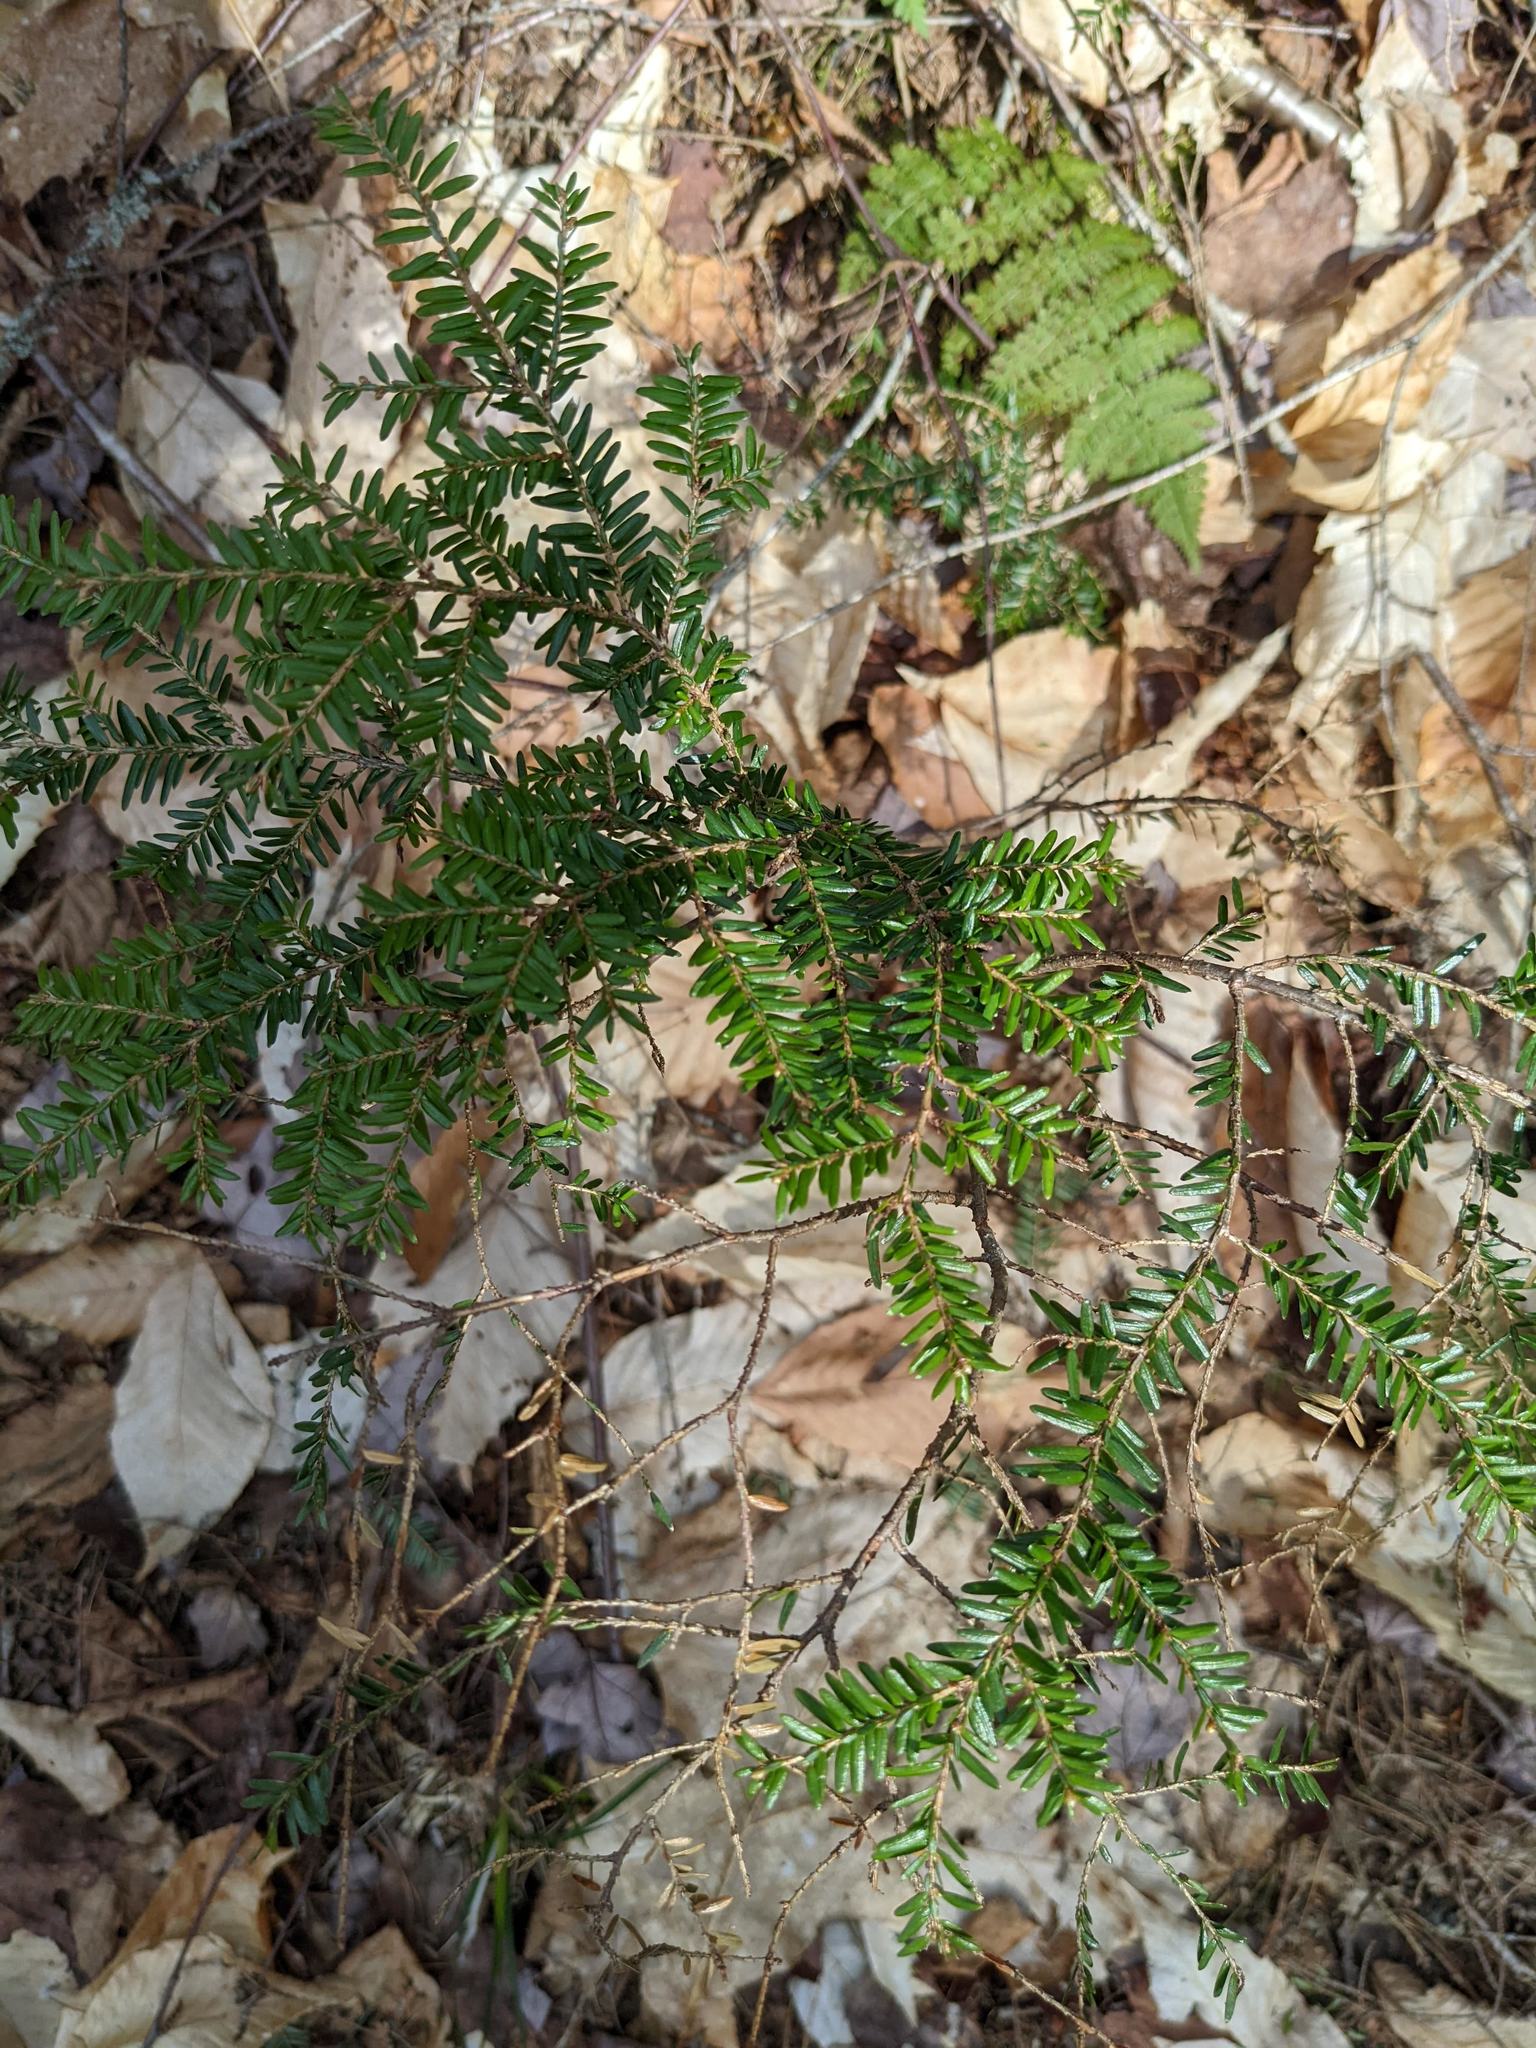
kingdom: Plantae
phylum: Tracheophyta
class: Pinopsida
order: Pinales
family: Pinaceae
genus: Tsuga
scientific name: Tsuga canadensis
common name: Eastern hemlock
